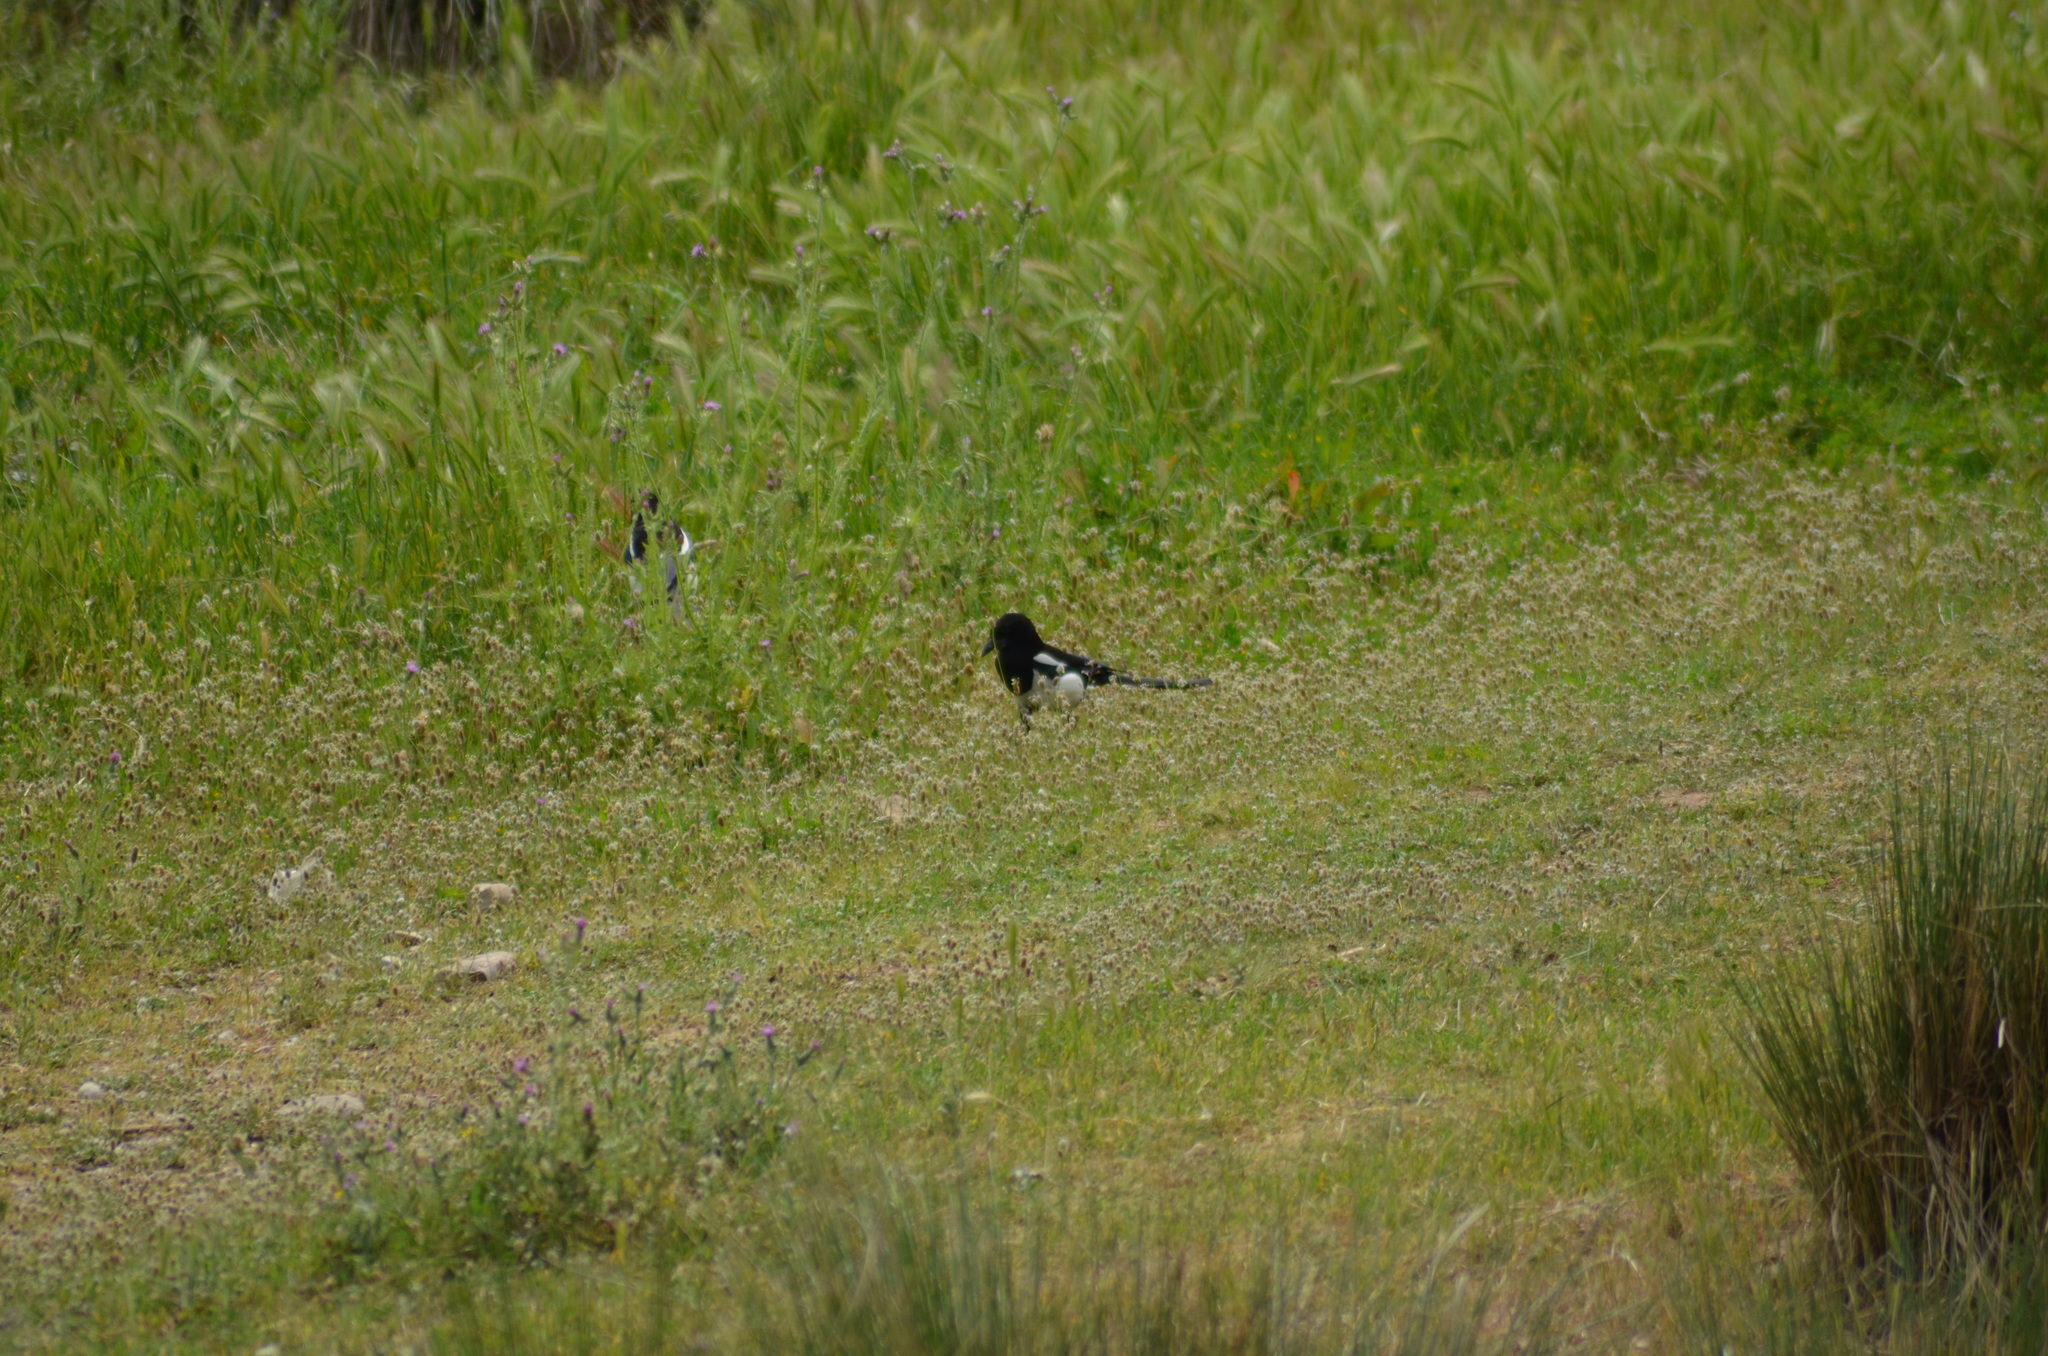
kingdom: Animalia
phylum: Chordata
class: Aves
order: Passeriformes
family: Corvidae
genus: Pica
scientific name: Pica pica
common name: Eurasian magpie
